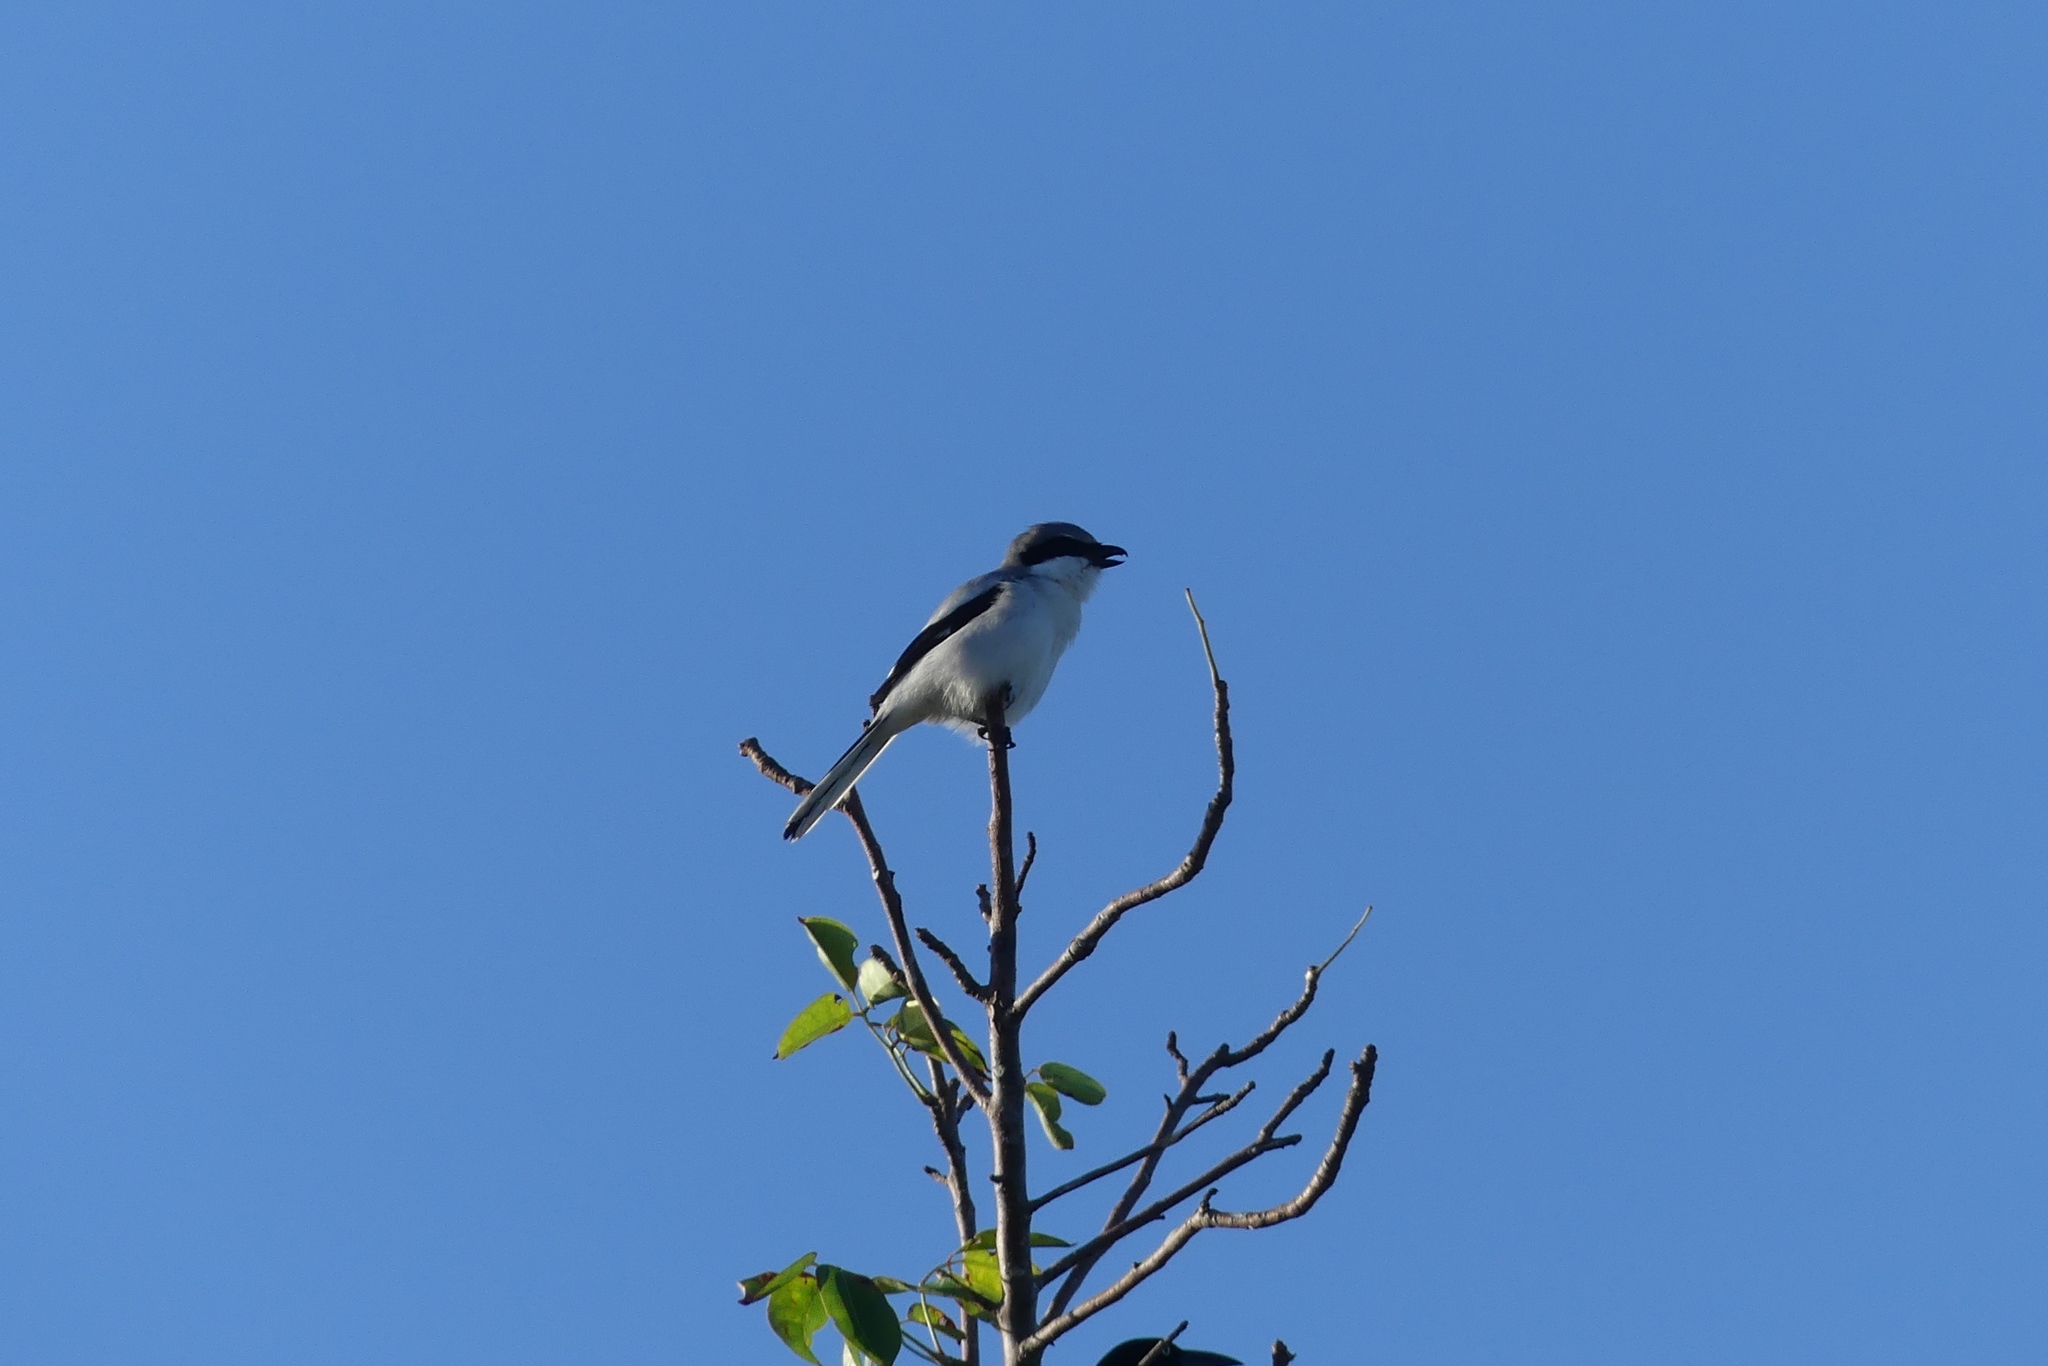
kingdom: Animalia
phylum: Chordata
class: Aves
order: Passeriformes
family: Laniidae
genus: Lanius
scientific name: Lanius ludovicianus
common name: Loggerhead shrike
